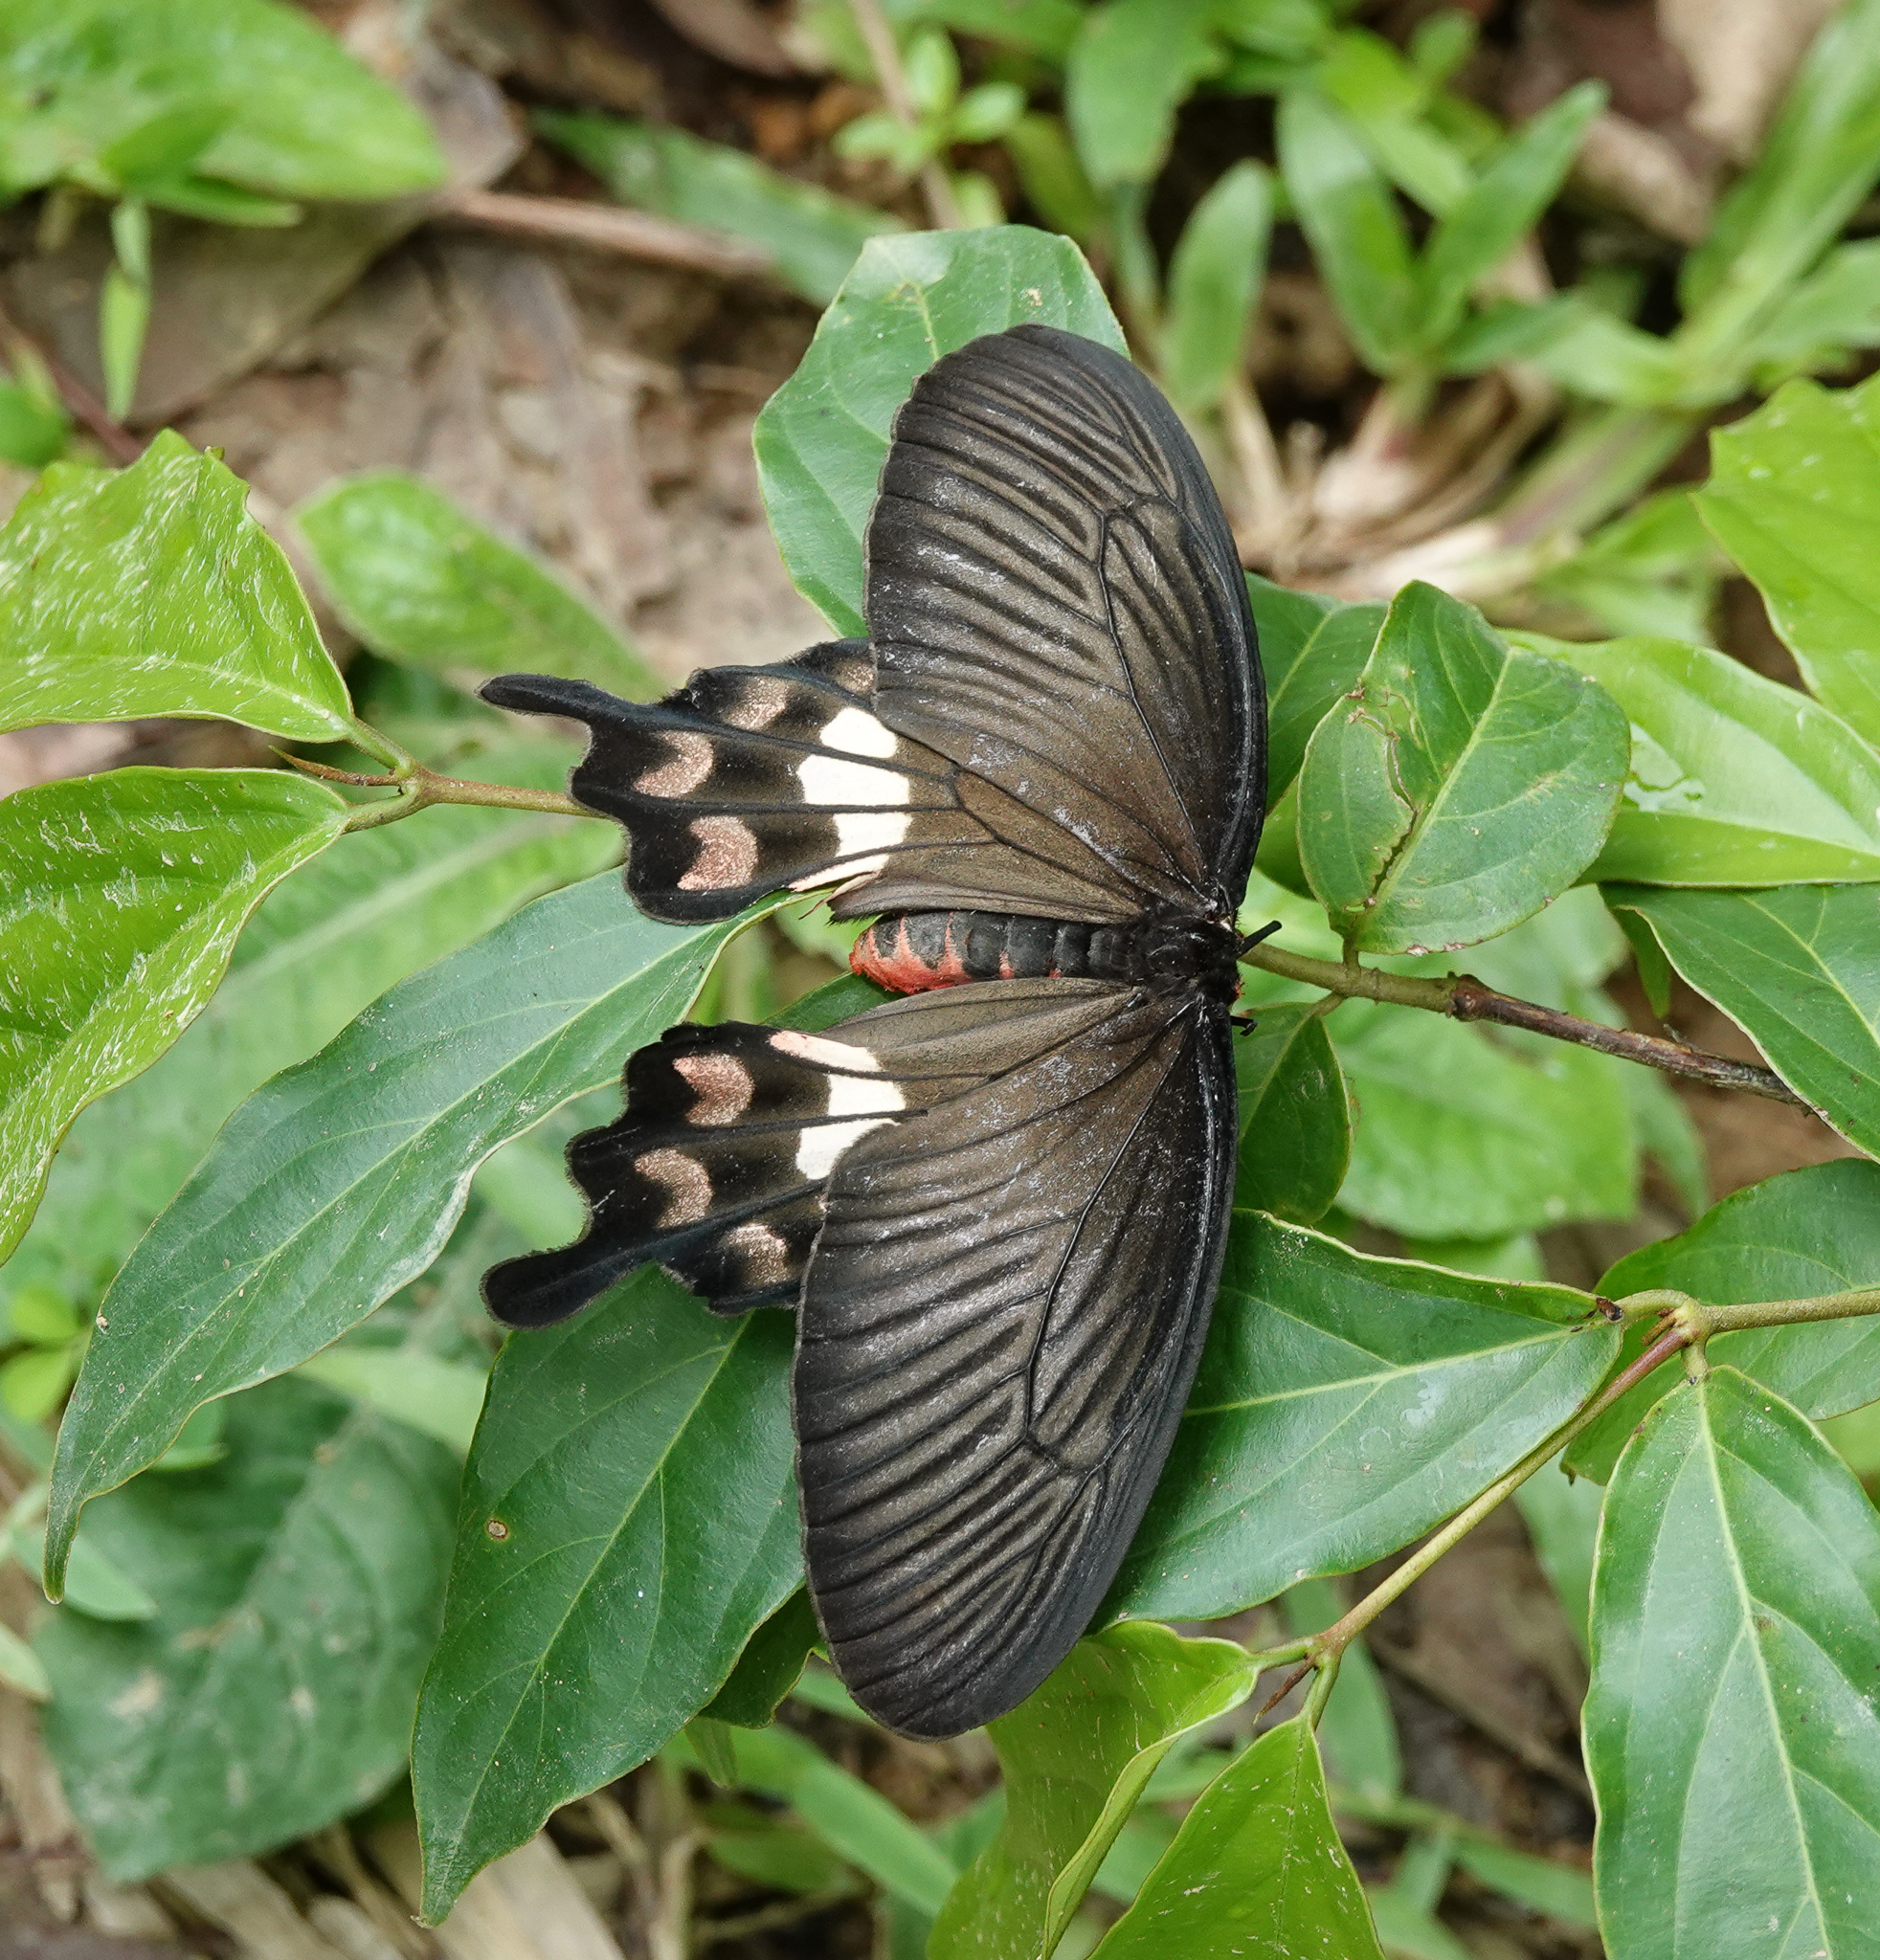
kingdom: Animalia
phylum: Arthropoda
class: Insecta
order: Lepidoptera
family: Papilionidae
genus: Pachliopta
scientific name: Pachliopta aristolochiae
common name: Common rose
